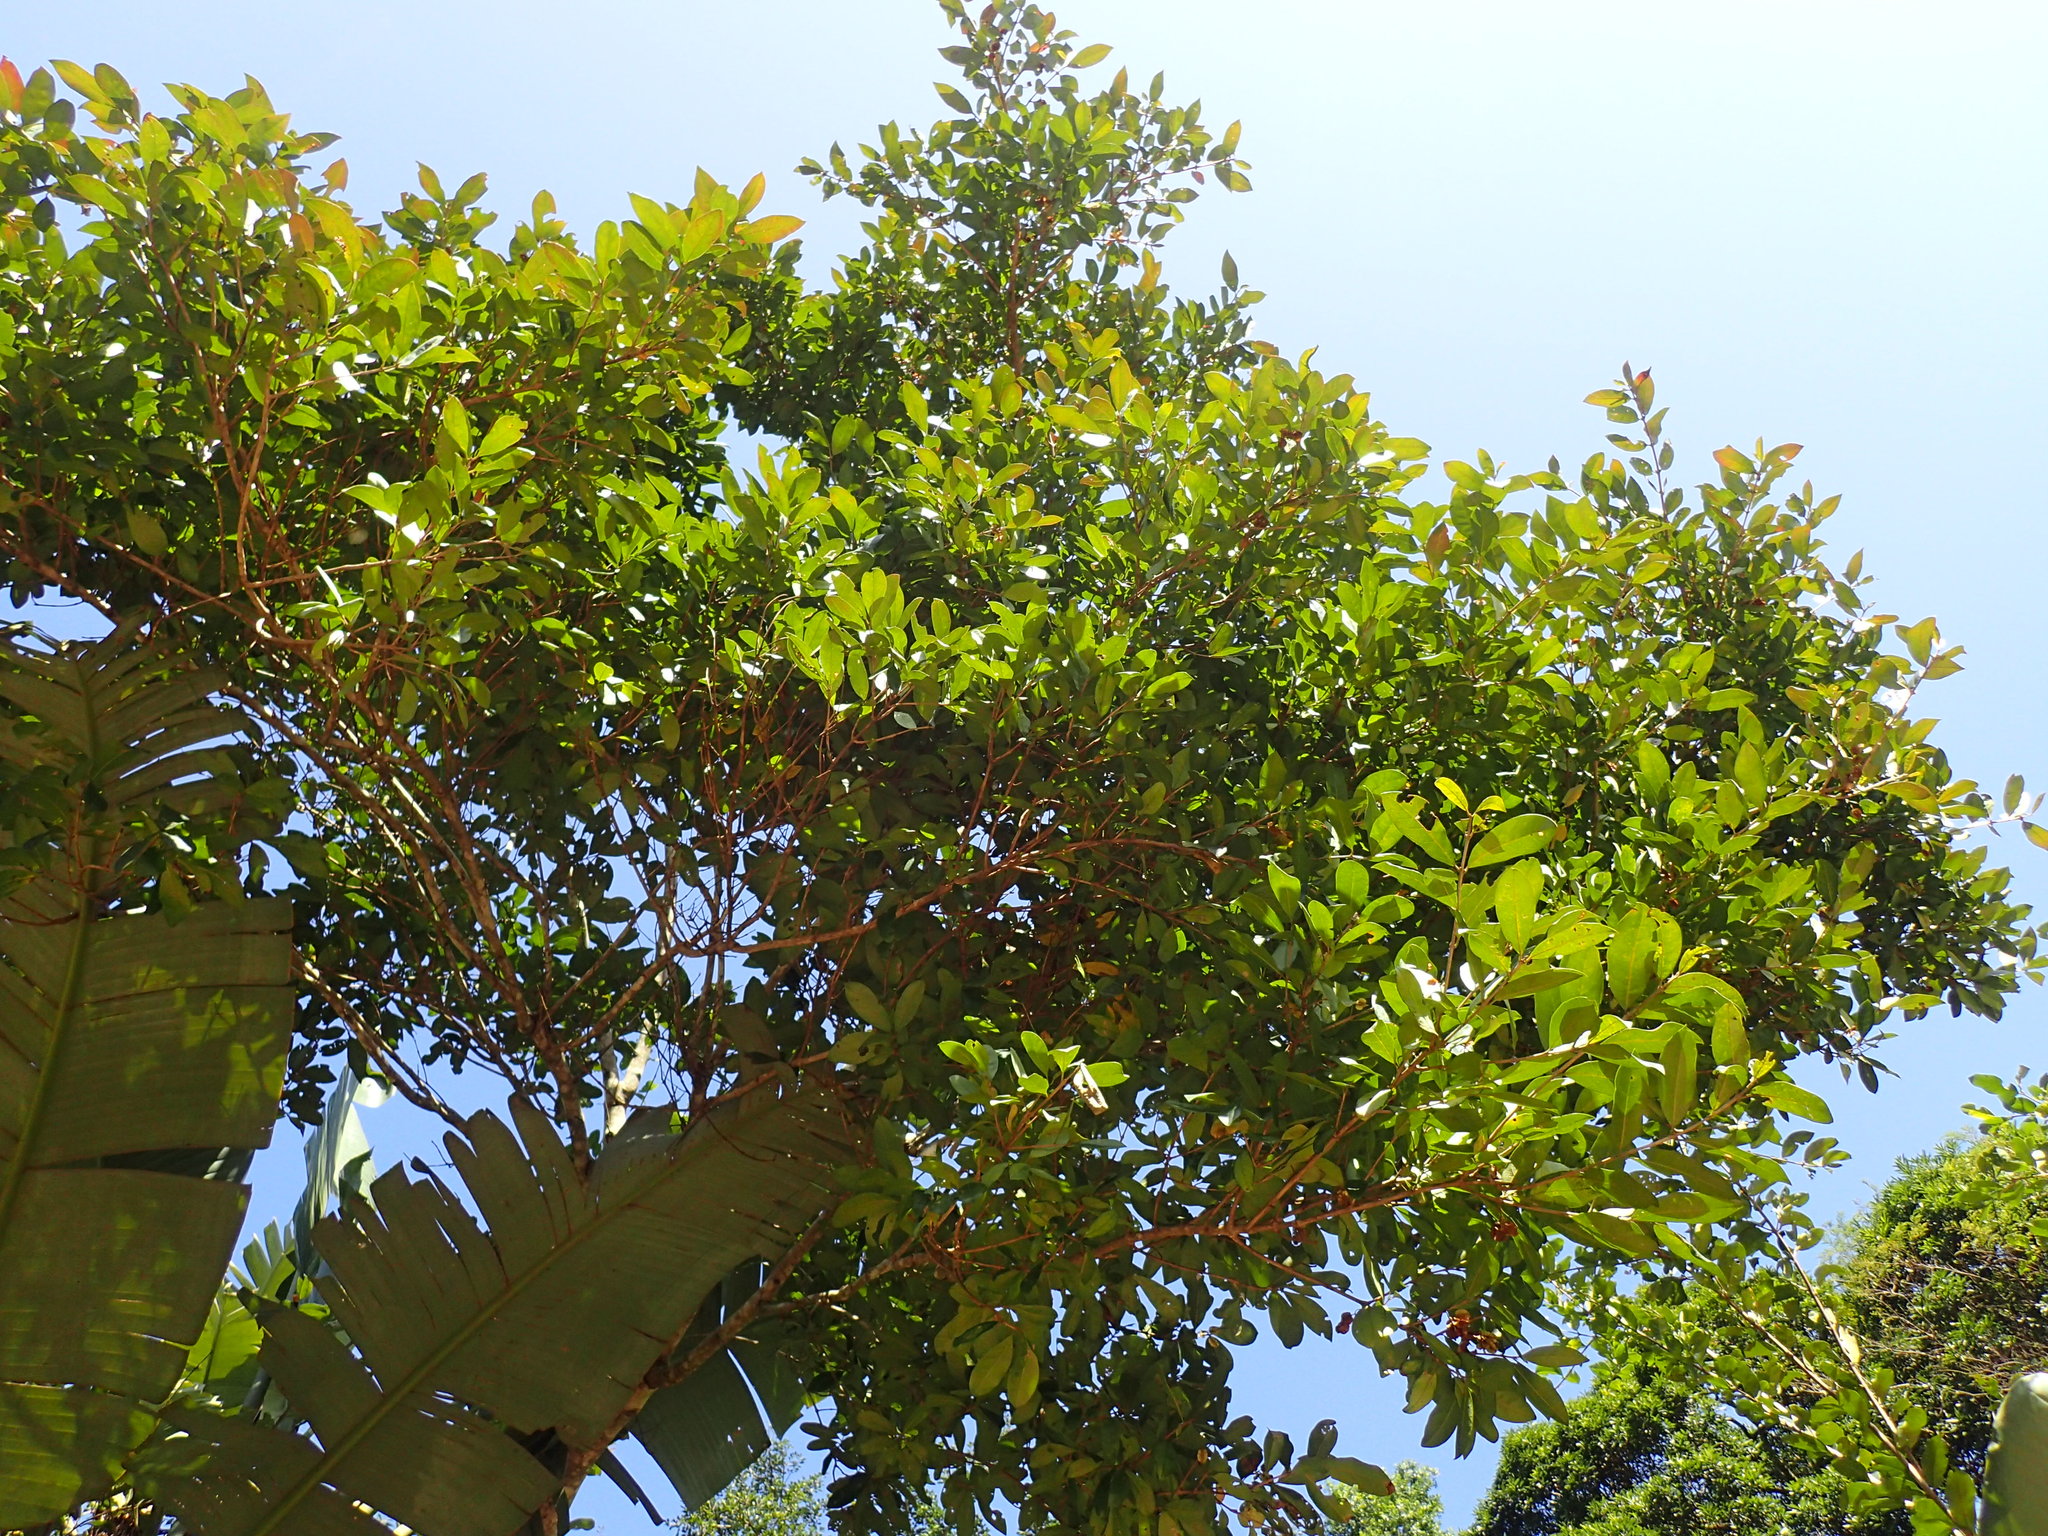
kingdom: Plantae
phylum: Tracheophyta
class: Magnoliopsida
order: Myrtales
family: Combretaceae
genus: Combretum
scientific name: Combretum kraussii
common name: Forest bushwillow
